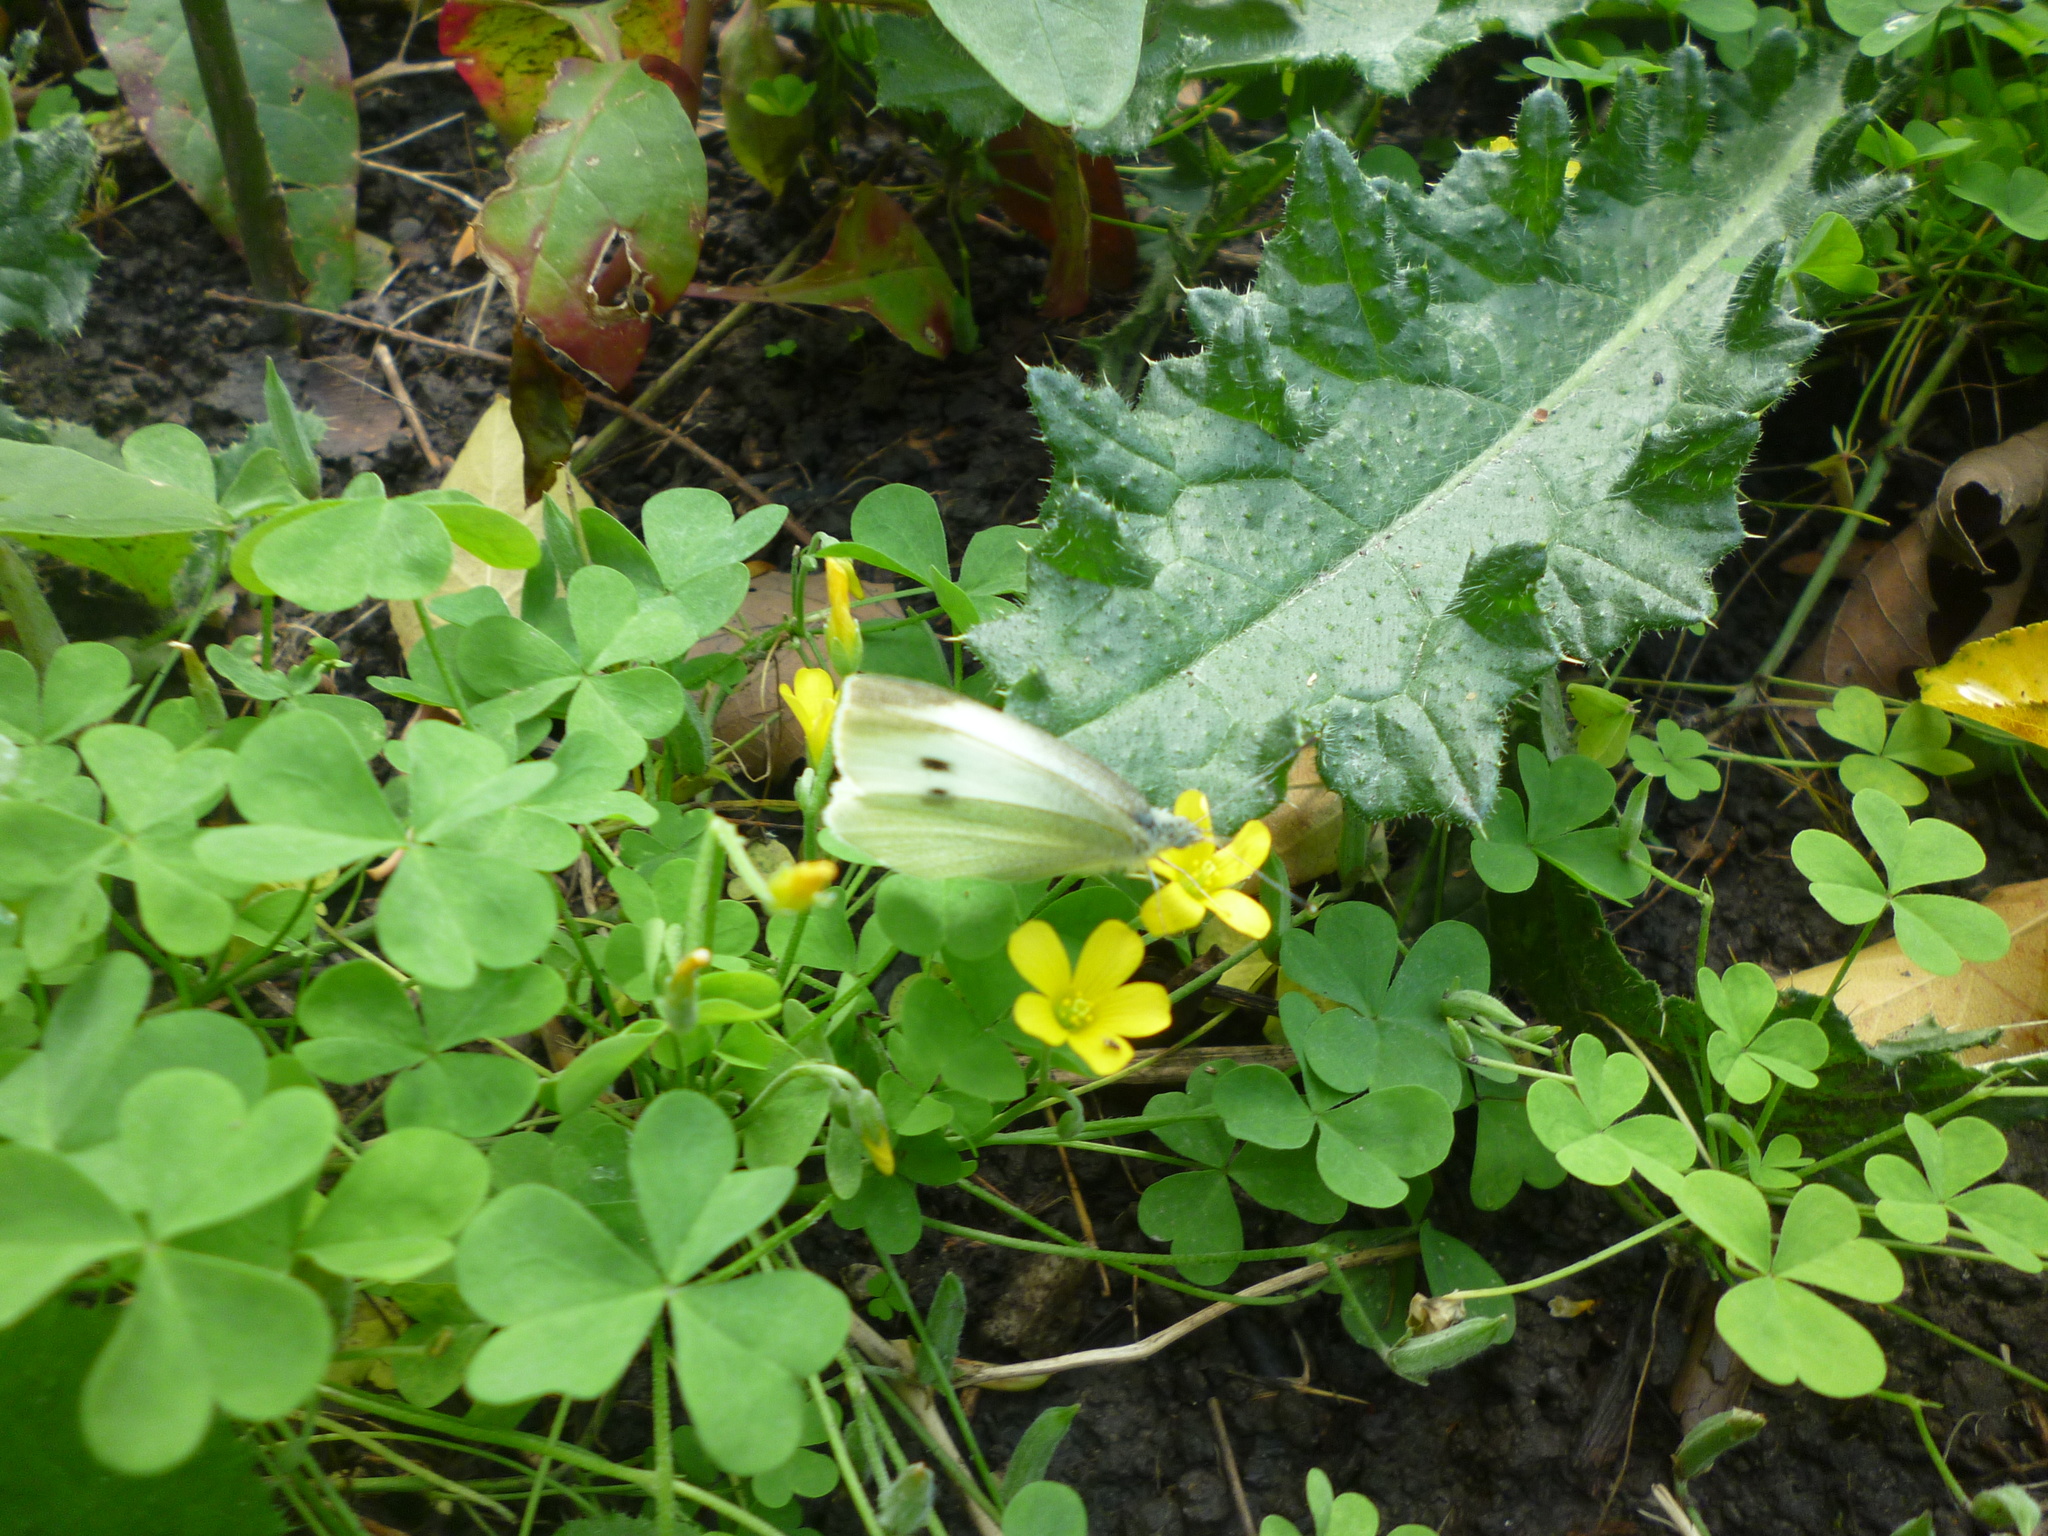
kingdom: Animalia
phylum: Arthropoda
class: Insecta
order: Lepidoptera
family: Pieridae
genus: Pieris
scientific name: Pieris rapae
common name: Small white
